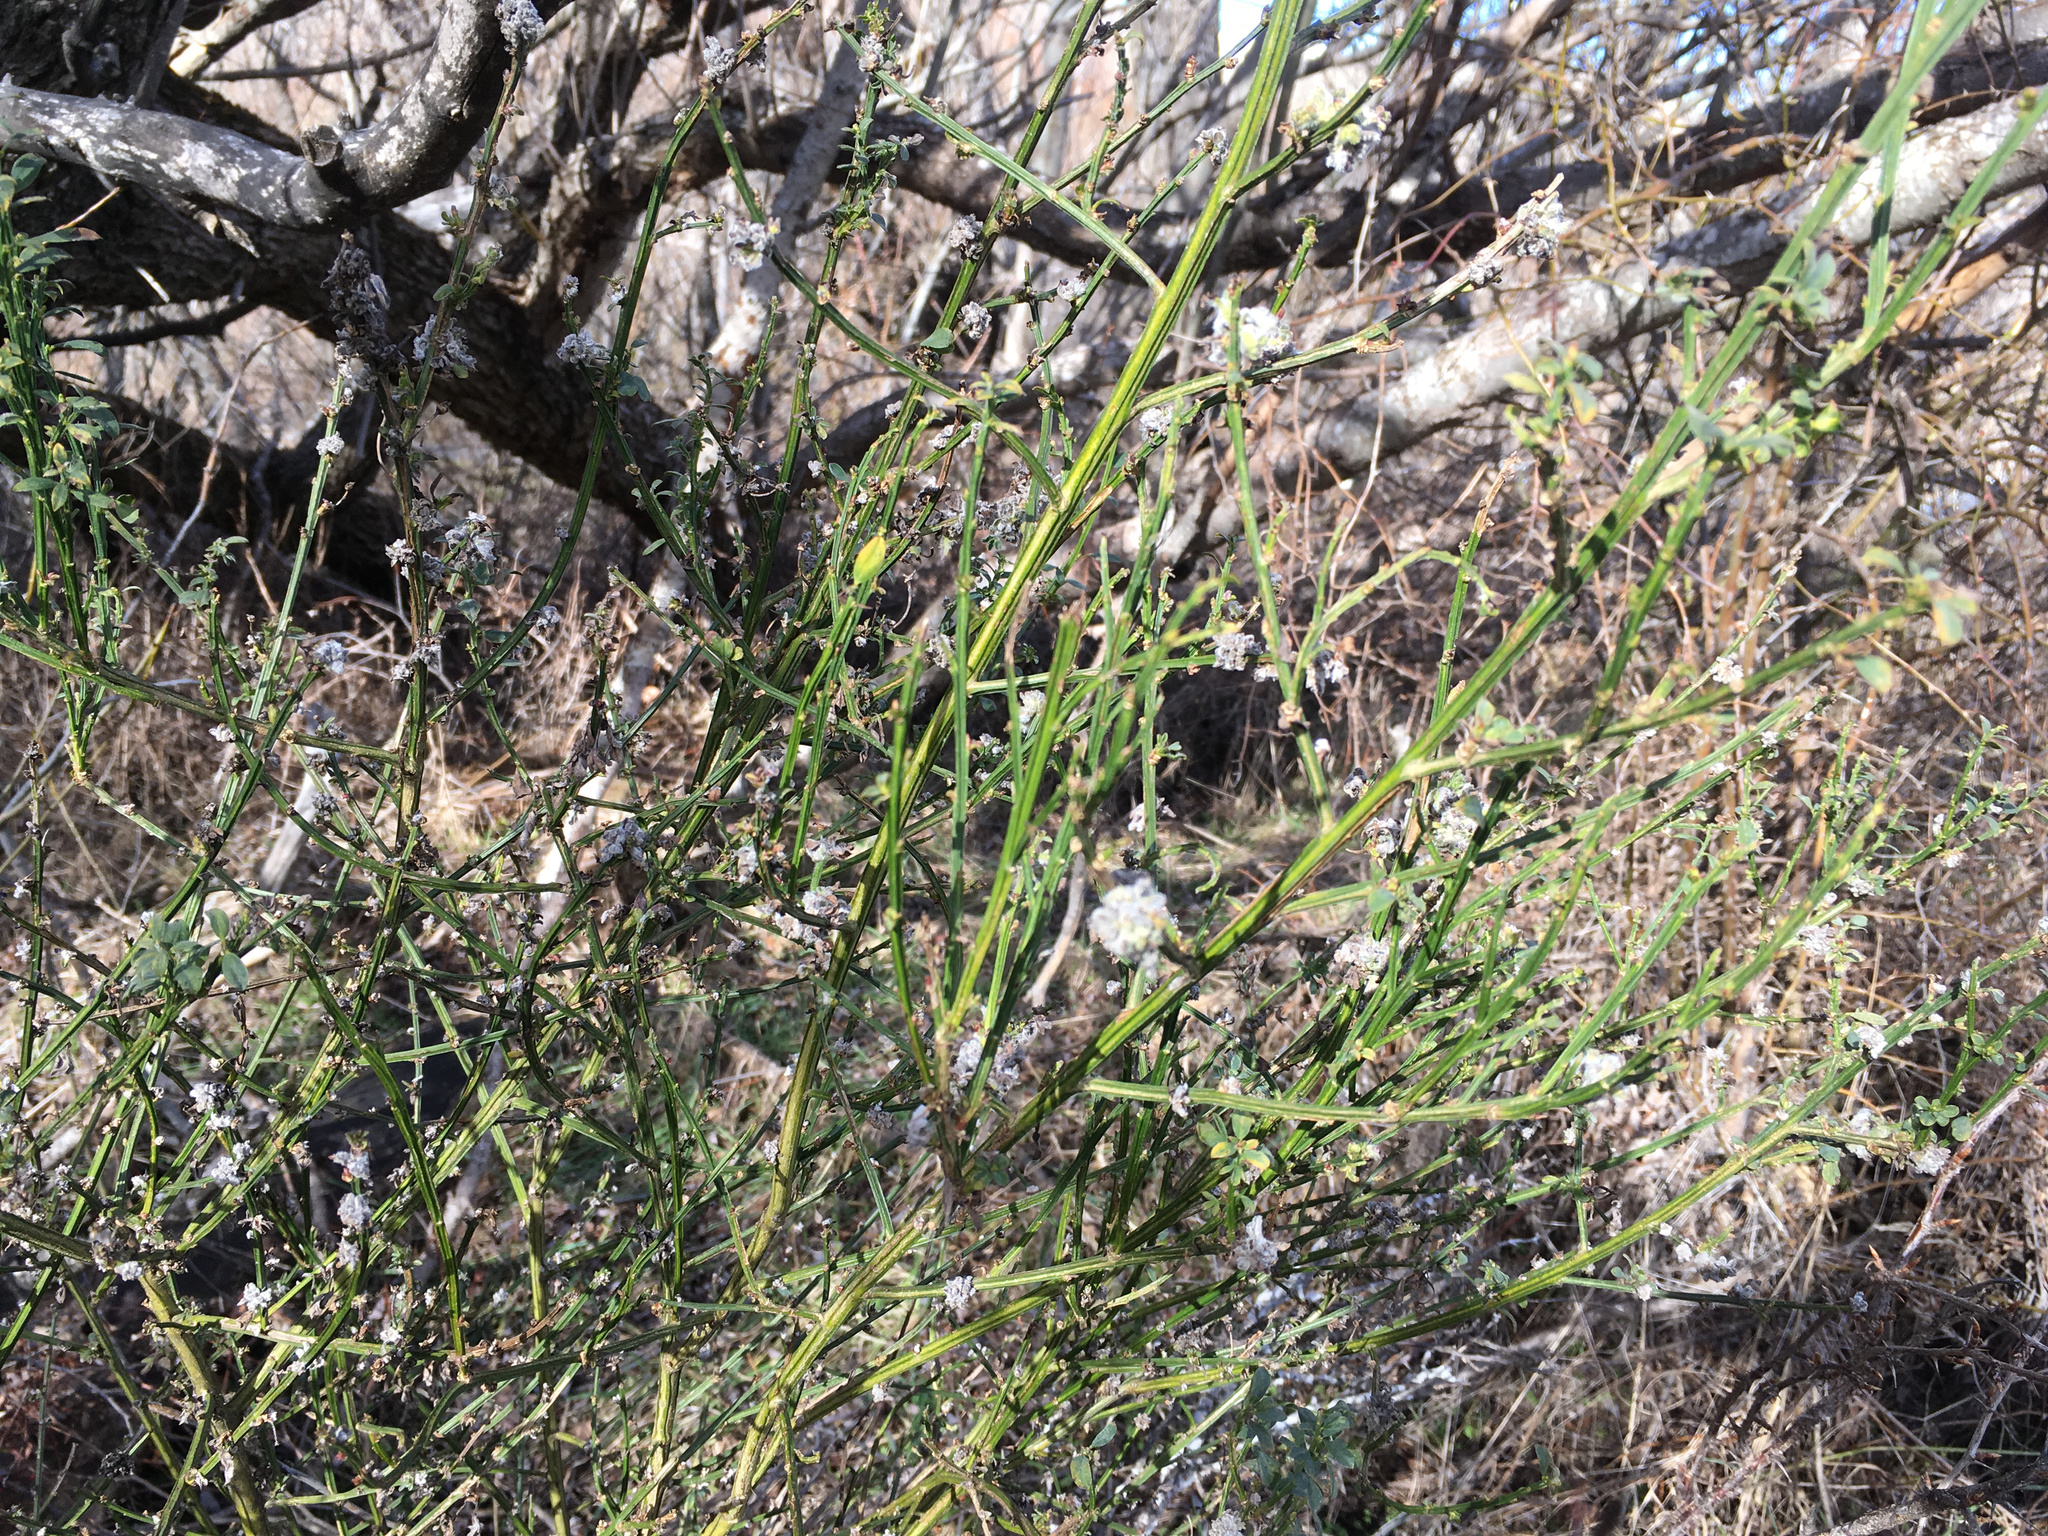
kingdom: Animalia
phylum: Arthropoda
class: Arachnida
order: Trombidiformes
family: Eriophyidae
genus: Aceria
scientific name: Aceria genistae
